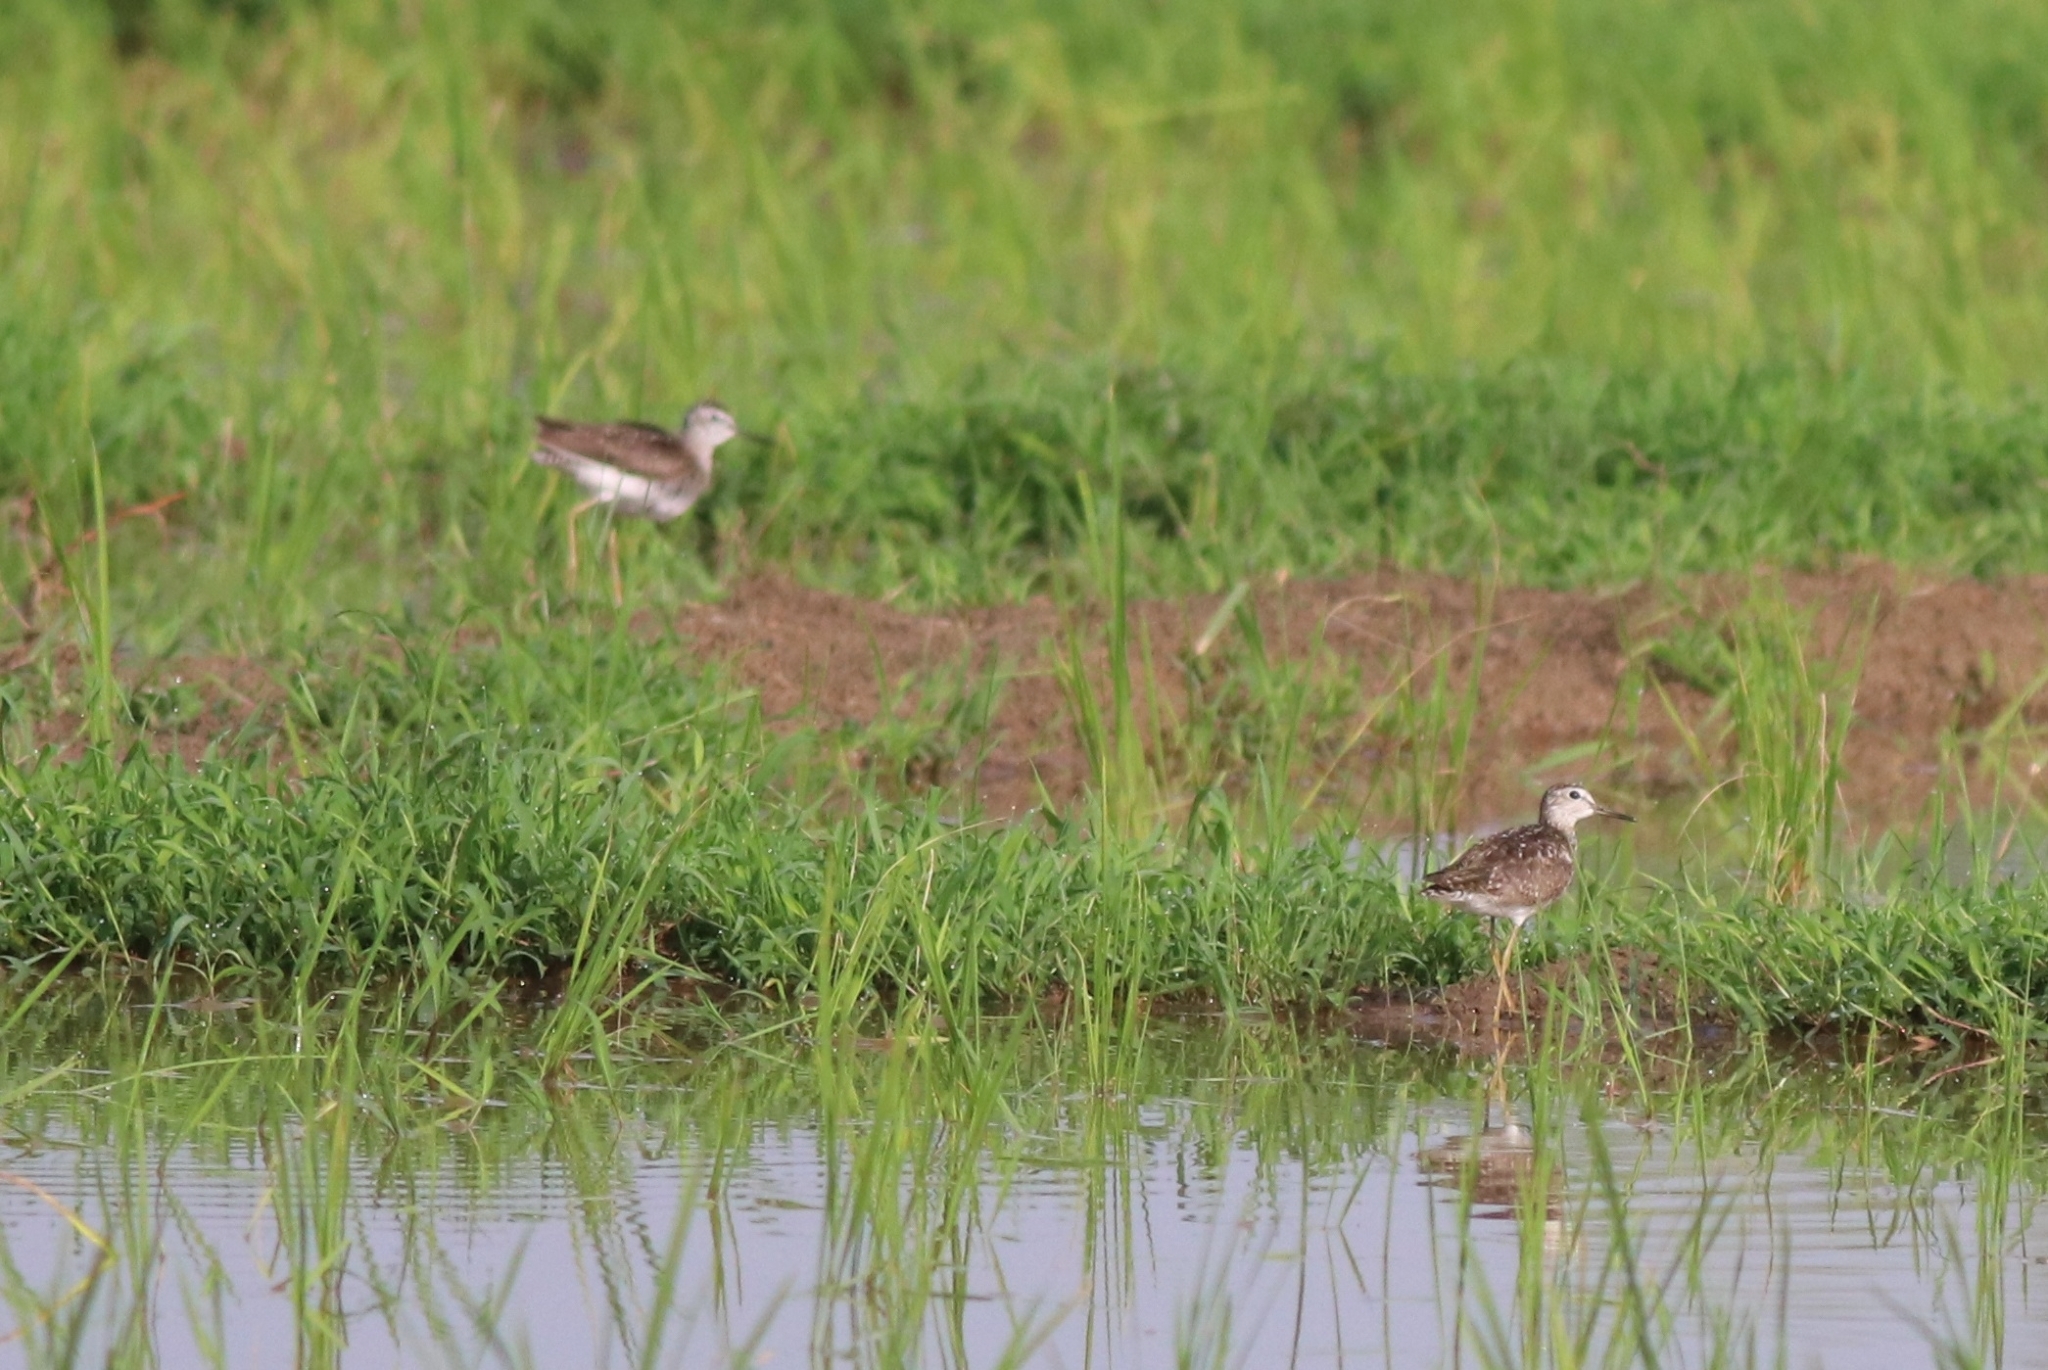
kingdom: Animalia
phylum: Chordata
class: Aves
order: Charadriiformes
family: Scolopacidae
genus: Tringa
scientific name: Tringa glareola
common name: Wood sandpiper
